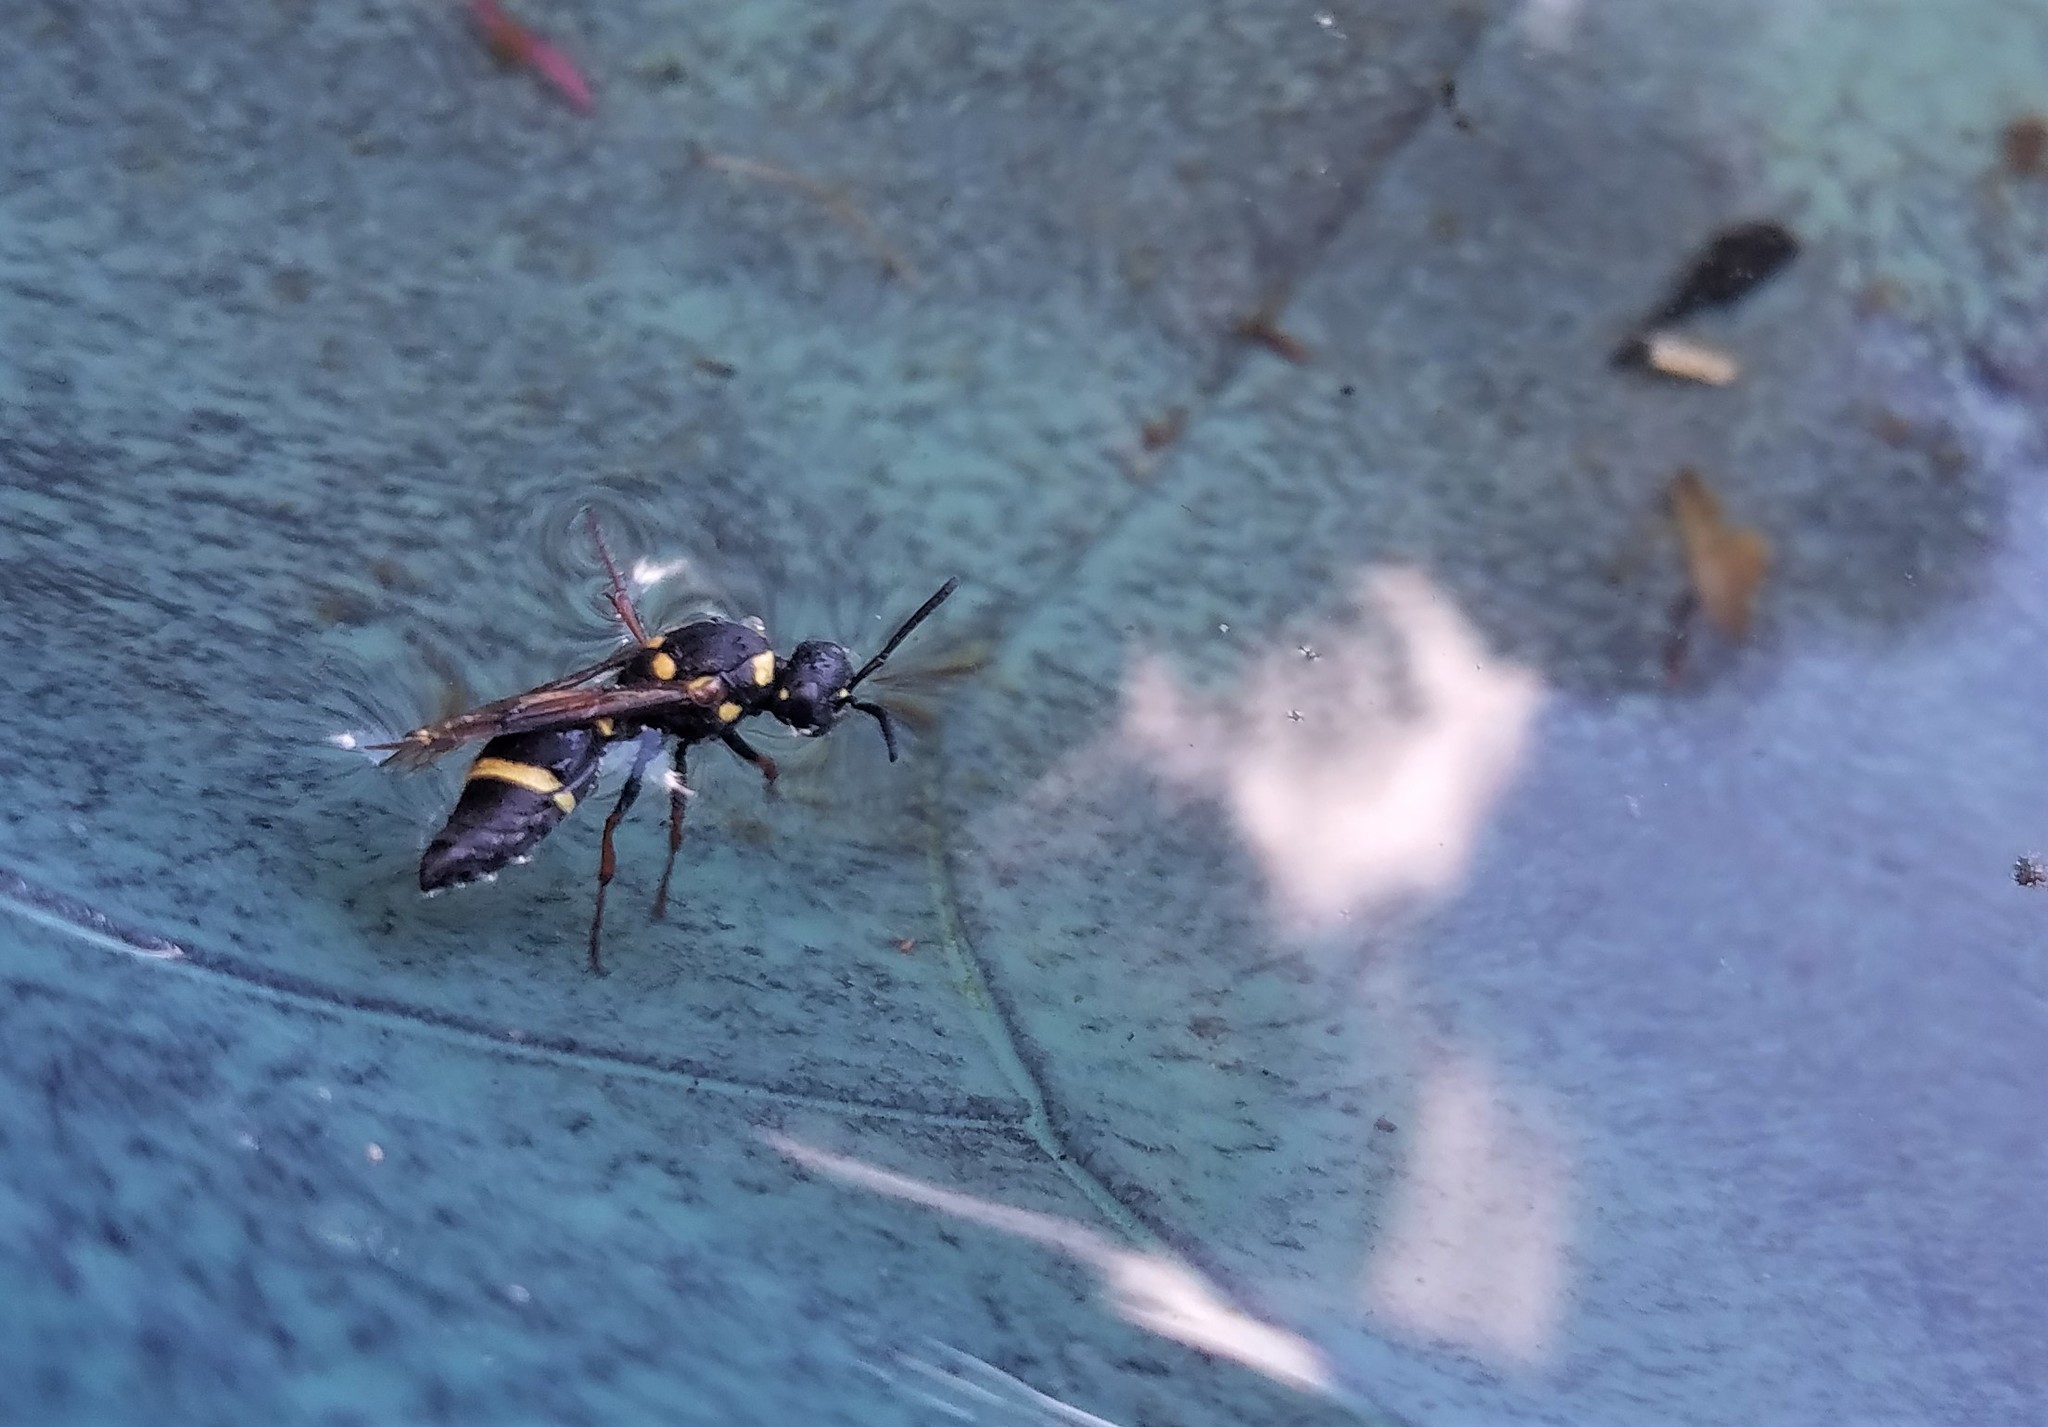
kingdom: Animalia
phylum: Arthropoda
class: Insecta
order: Hymenoptera
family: Eumenidae
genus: Paralastor
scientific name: Paralastor laetus
